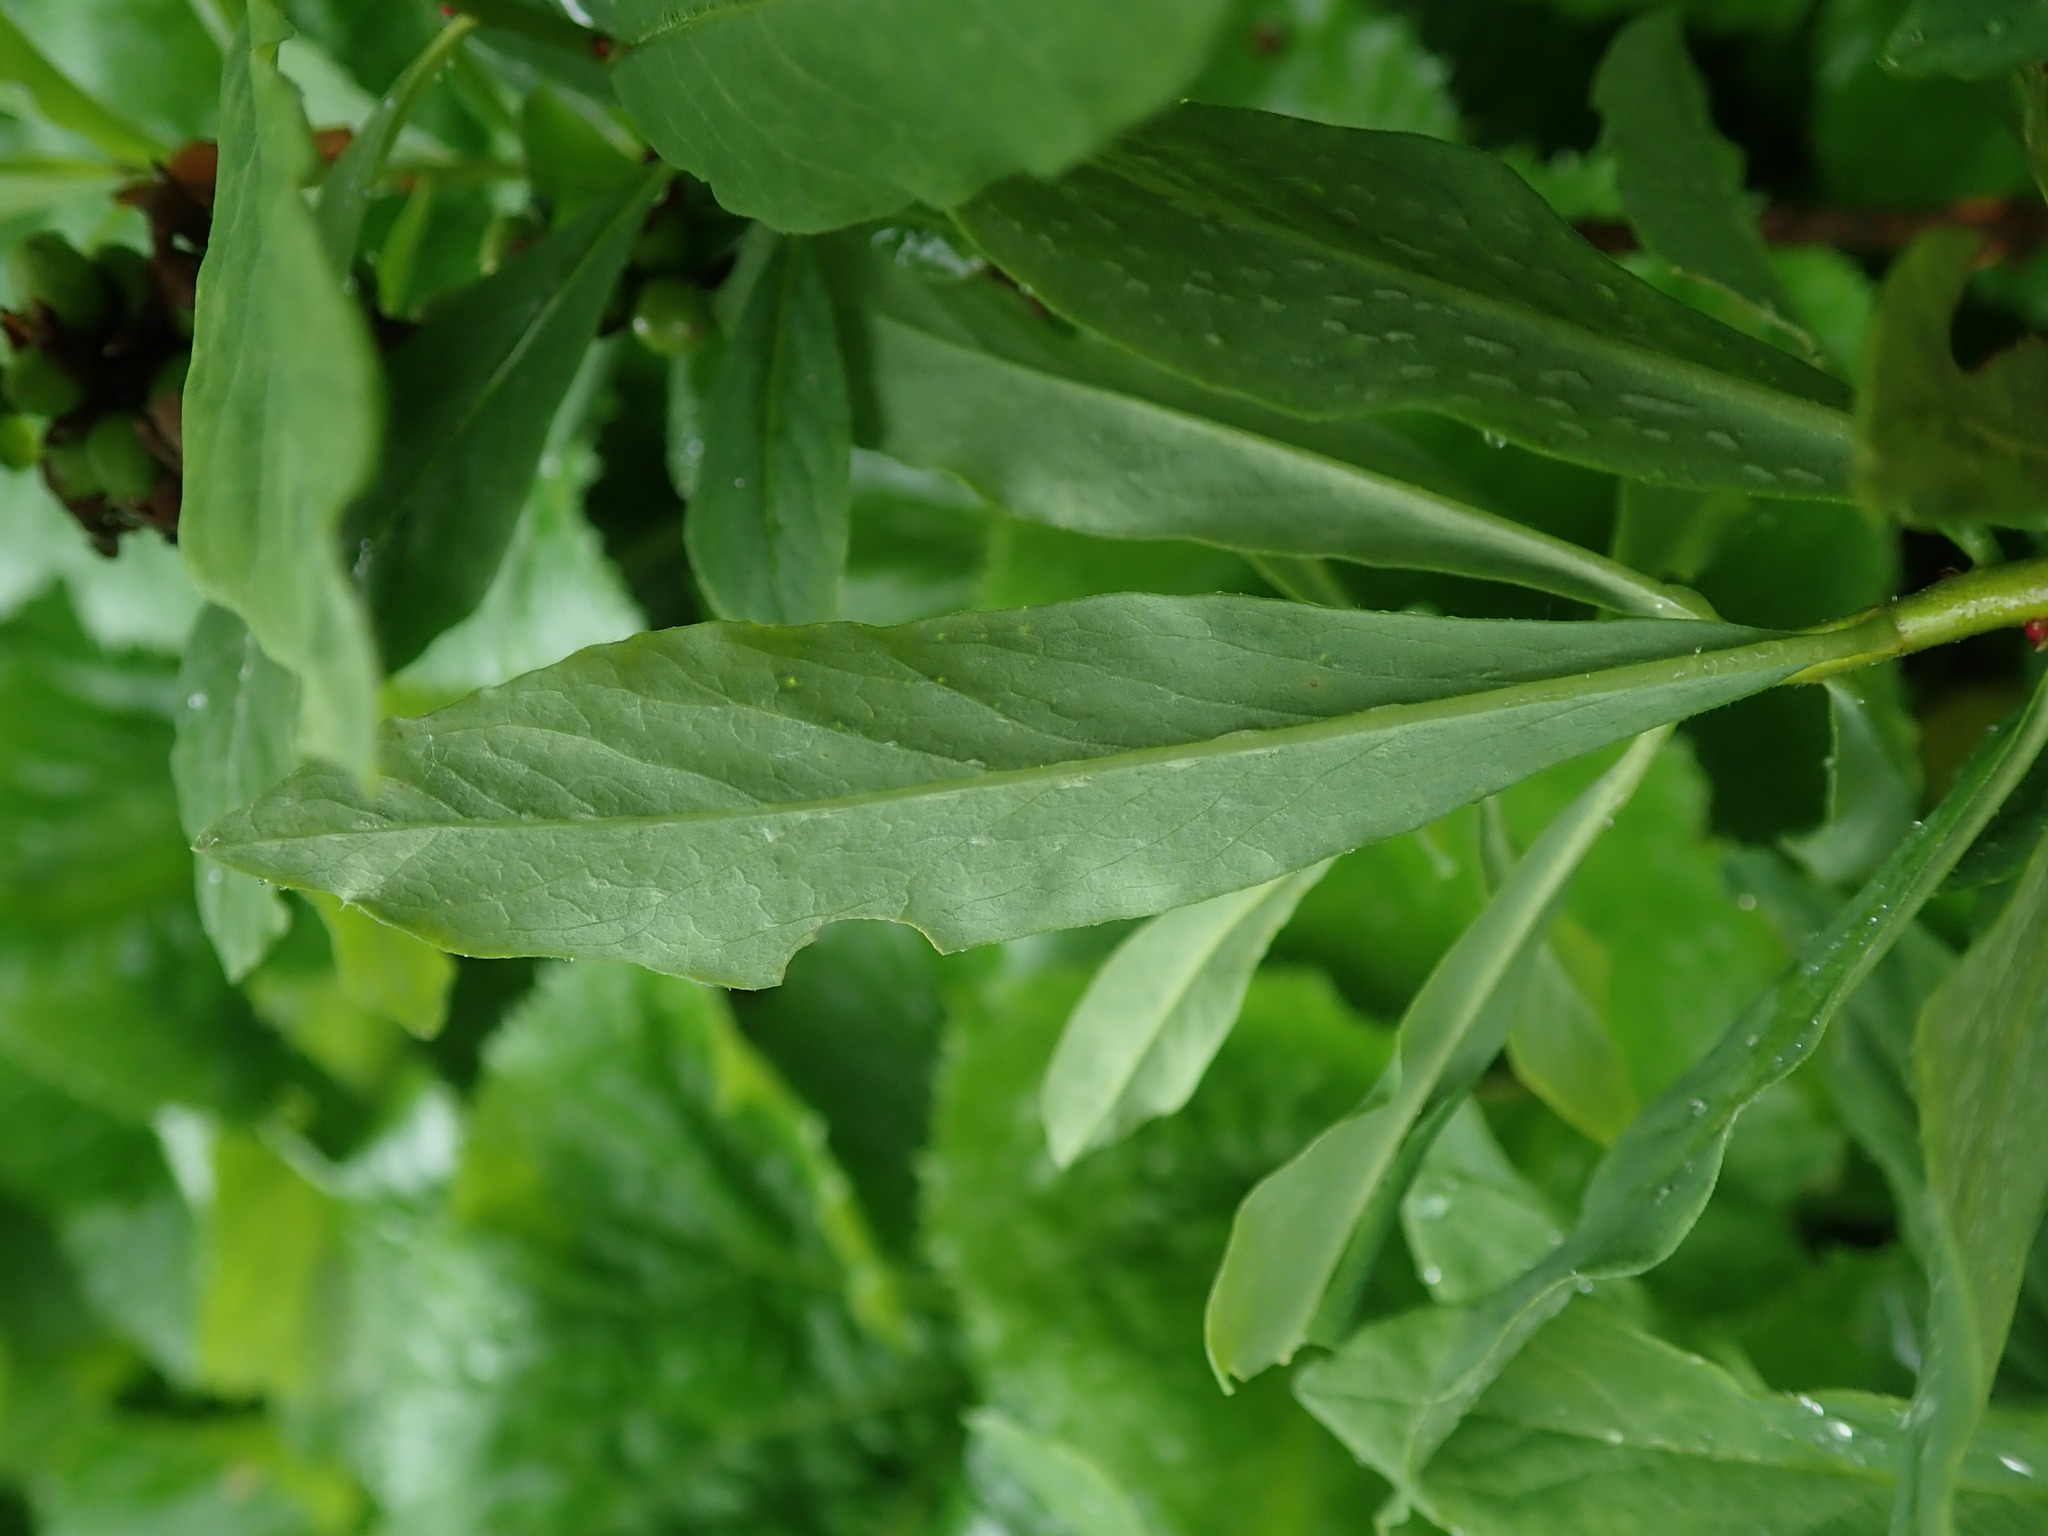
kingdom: Plantae
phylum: Tracheophyta
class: Magnoliopsida
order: Malvales
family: Thymelaeaceae
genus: Daphne
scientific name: Daphne mezereum
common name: Mezereon
